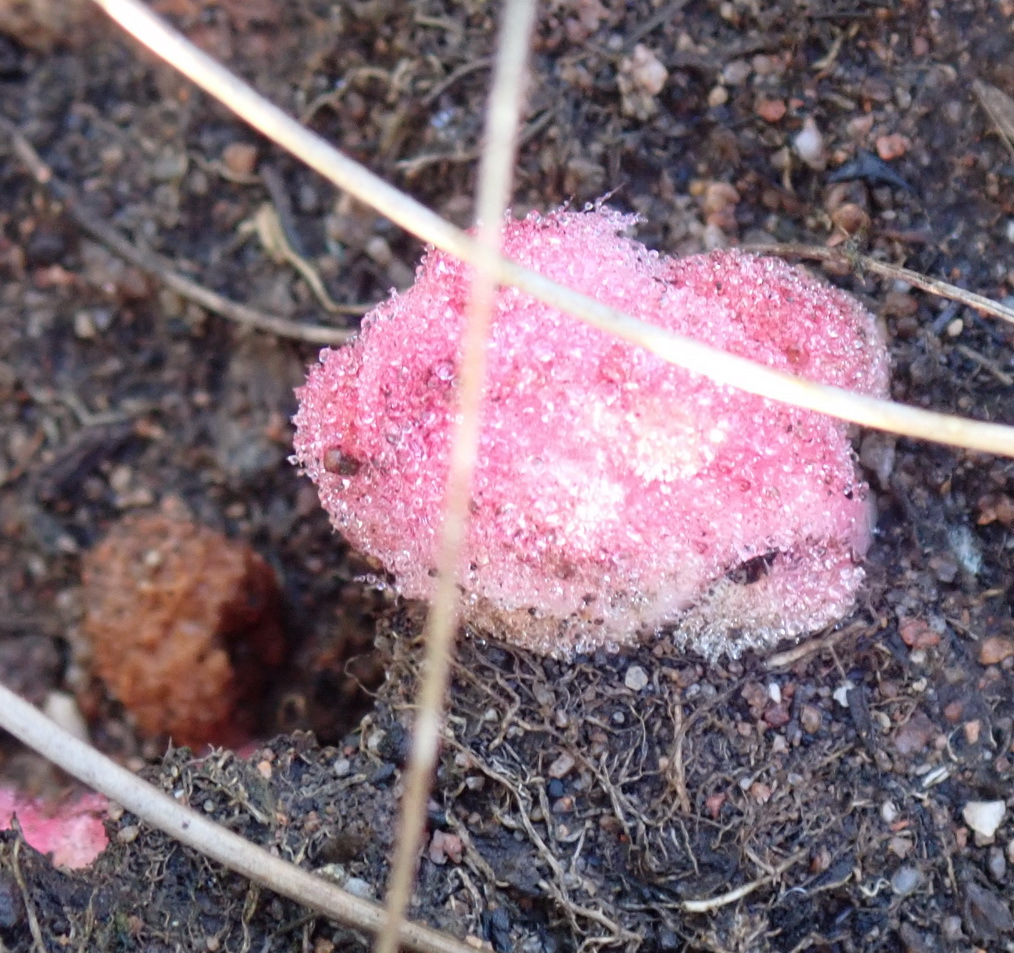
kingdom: Plantae
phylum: Tracheophyta
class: Magnoliopsida
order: Lamiales
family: Orobanchaceae
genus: Harveya
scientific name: Harveya roseoalba
